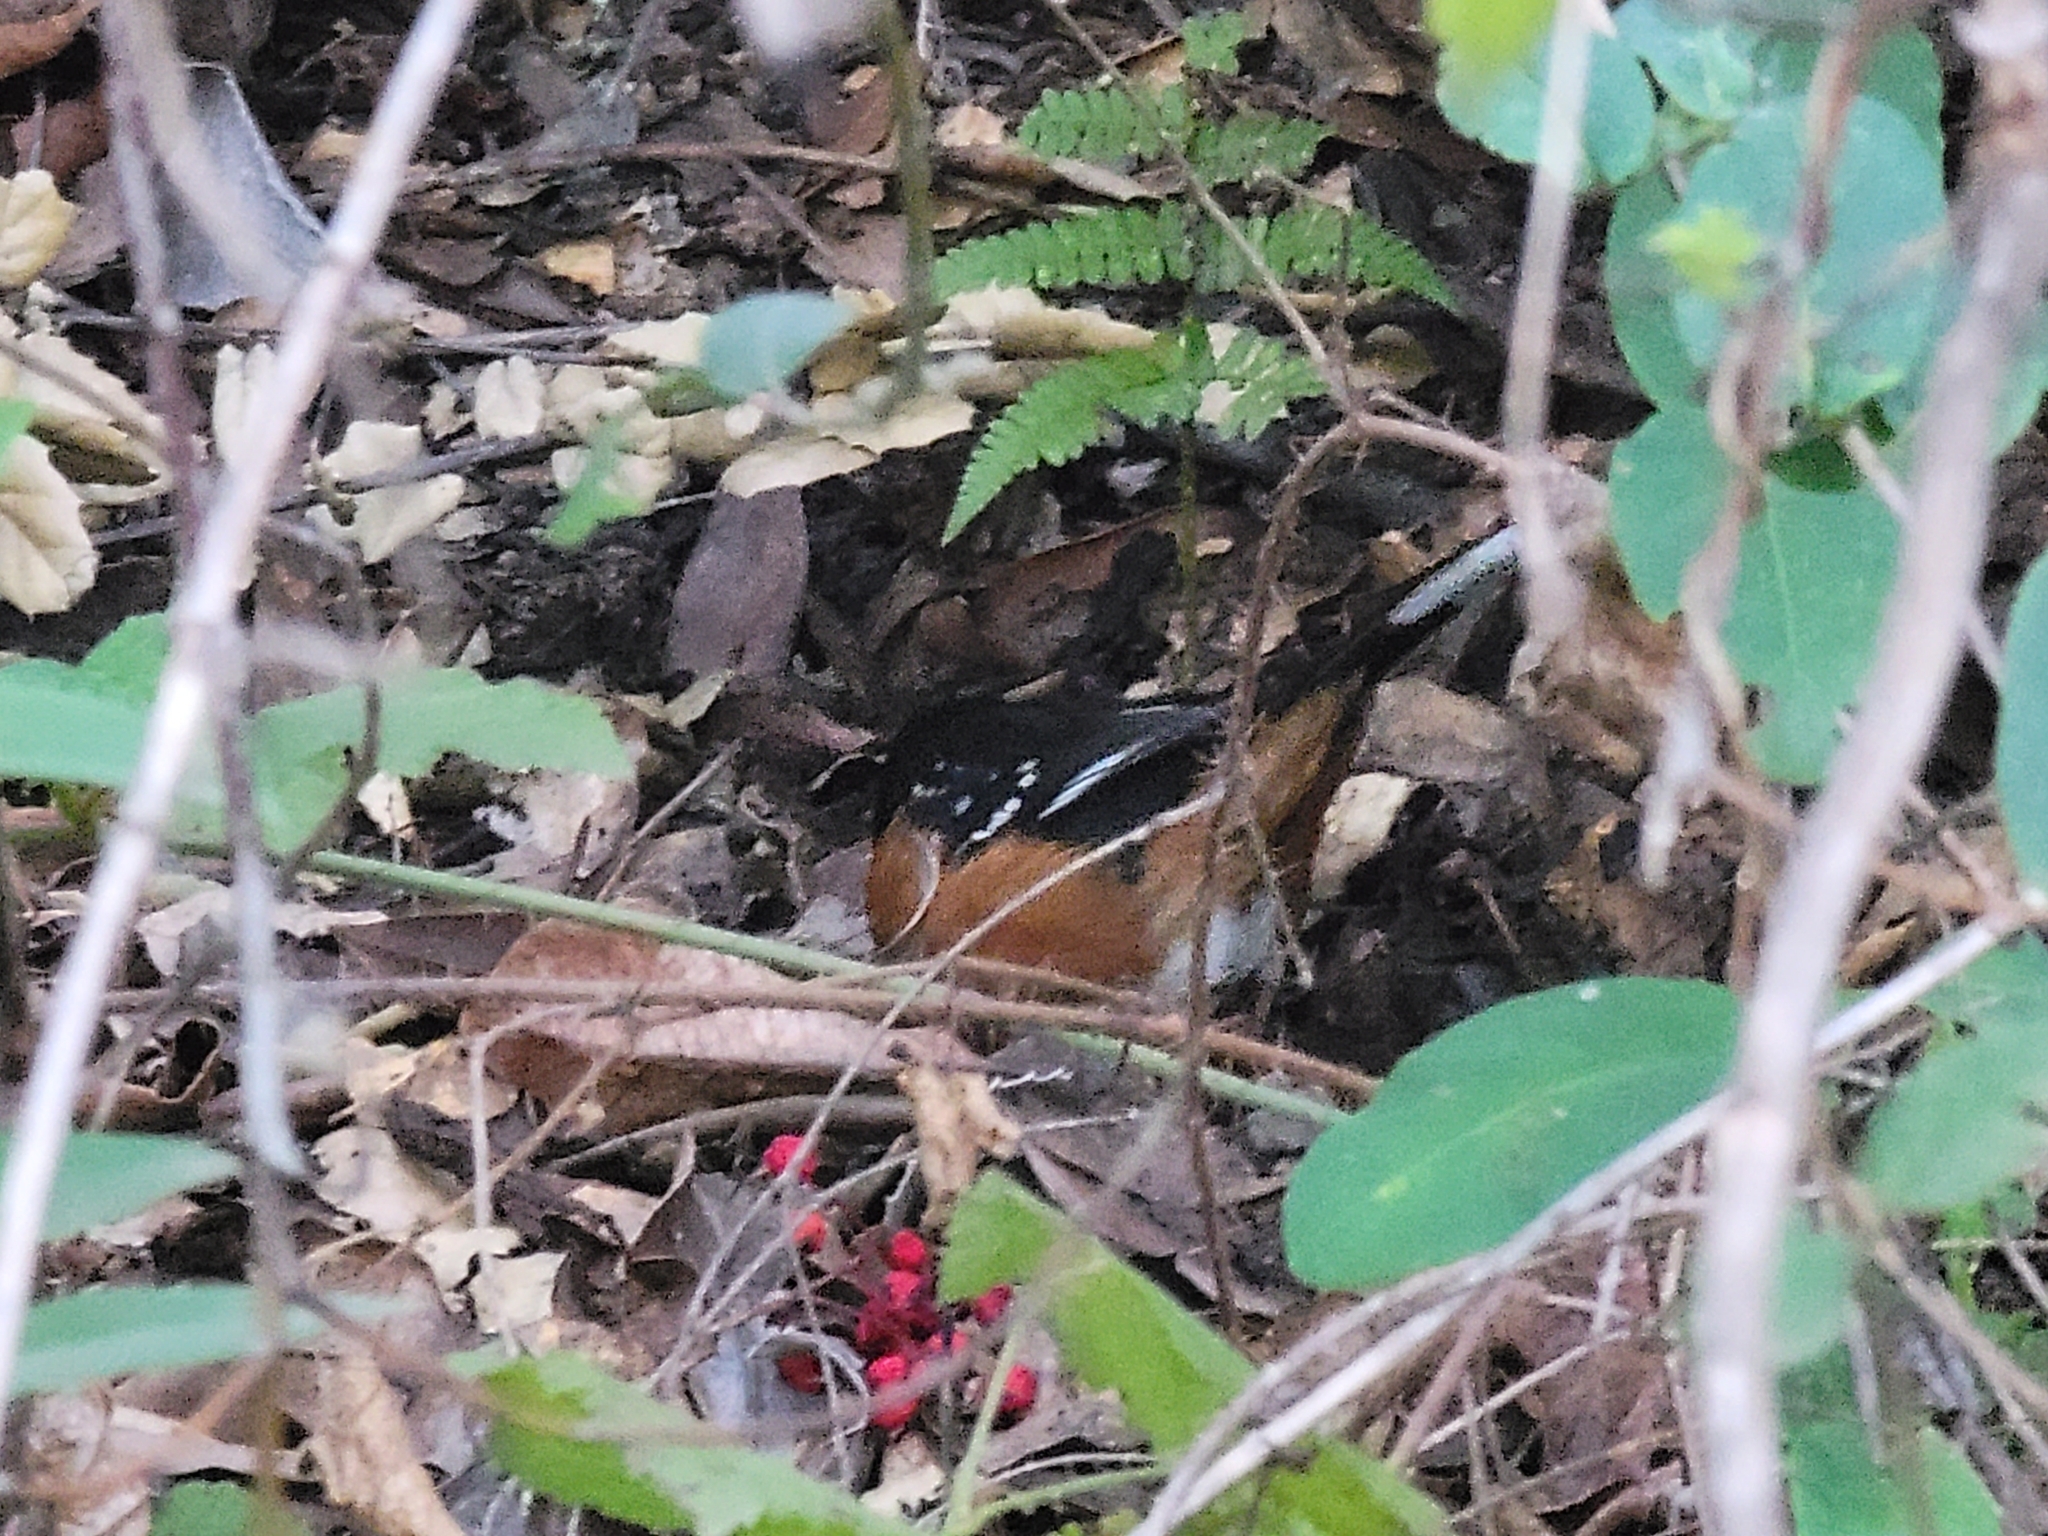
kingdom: Animalia
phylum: Chordata
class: Aves
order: Passeriformes
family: Passerellidae
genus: Pipilo
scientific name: Pipilo maculatus
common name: Spotted towhee
